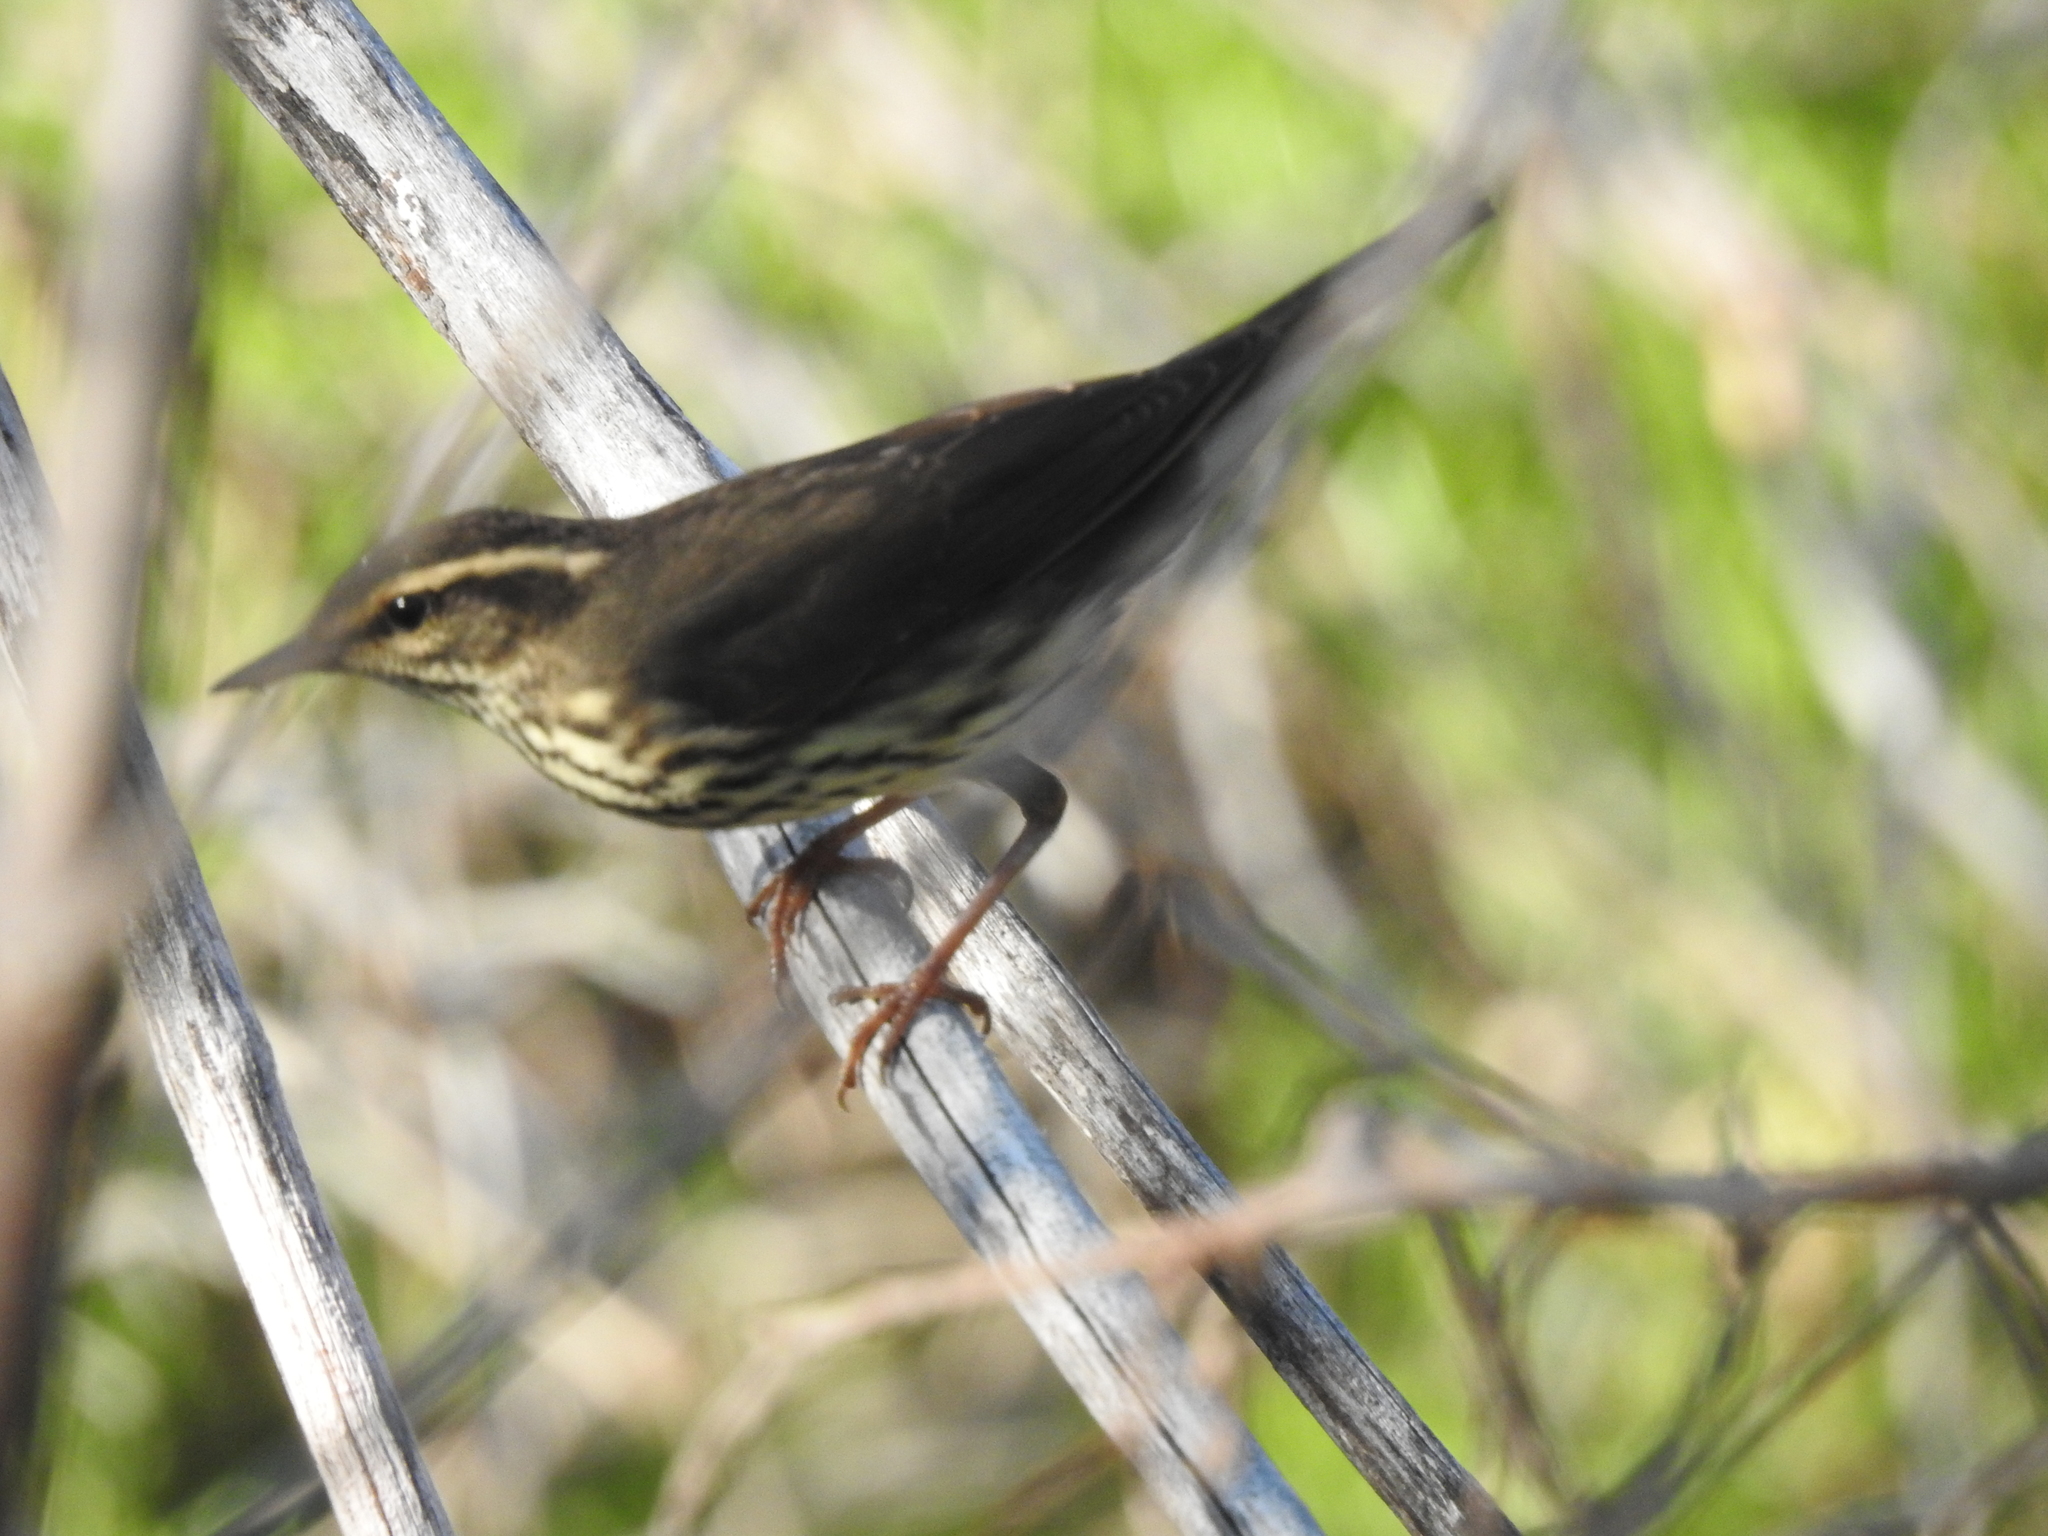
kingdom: Animalia
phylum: Chordata
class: Aves
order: Passeriformes
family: Parulidae
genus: Parkesia
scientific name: Parkesia noveboracensis
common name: Northern waterthrush
